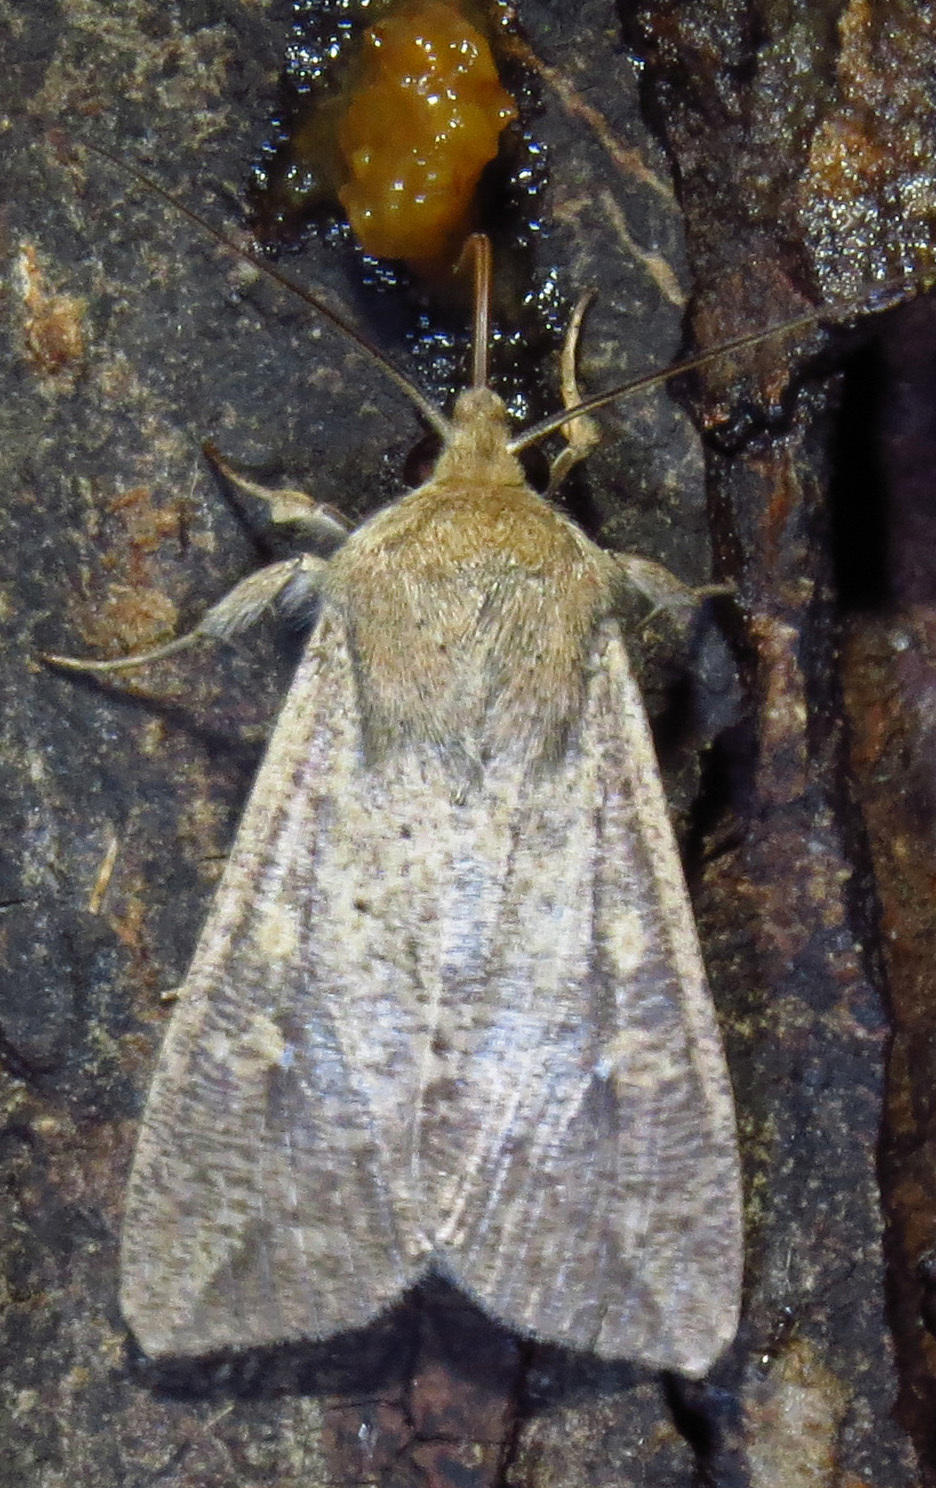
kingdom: Animalia
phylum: Arthropoda
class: Insecta
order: Lepidoptera
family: Noctuidae
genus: Mythimna
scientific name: Mythimna unipuncta
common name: White-speck
